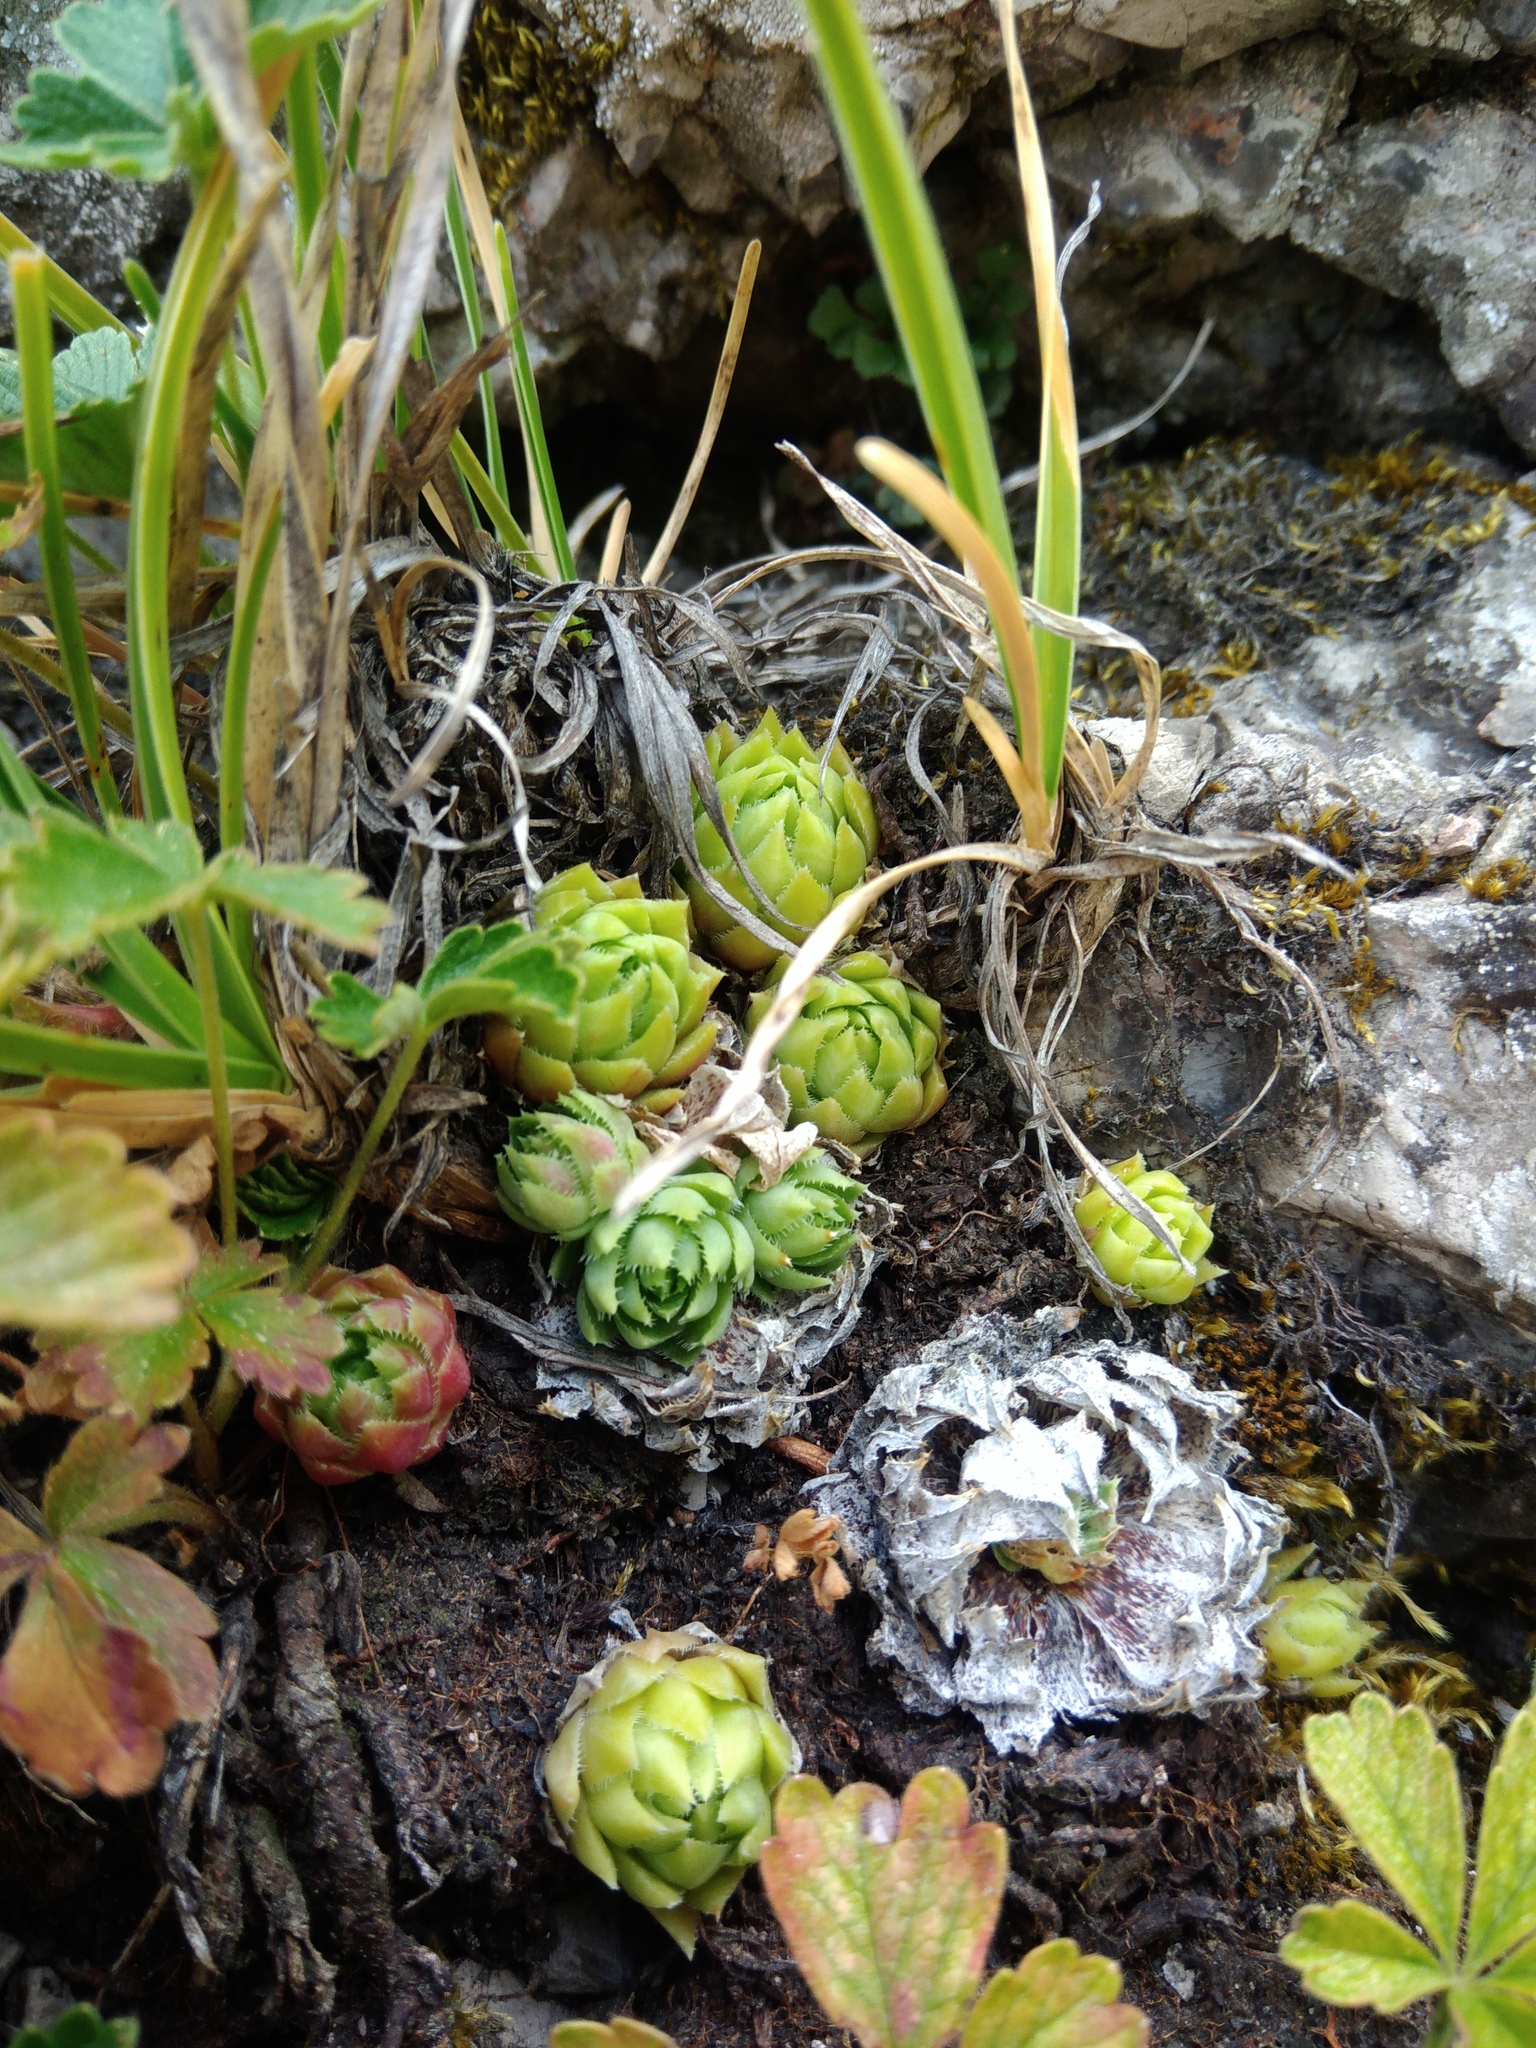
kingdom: Plantae
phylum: Tracheophyta
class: Magnoliopsida
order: Saxifragales
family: Crassulaceae
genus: Sempervivum
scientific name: Sempervivum globiferum
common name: Rolling hen-and-chicks
